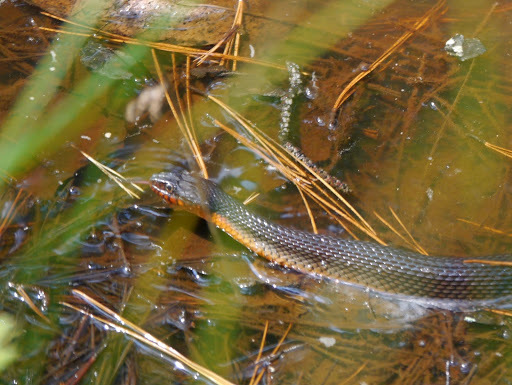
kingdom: Animalia
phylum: Chordata
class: Squamata
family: Colubridae
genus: Nerodia
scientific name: Nerodia erythrogaster
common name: Plainbelly water snake
